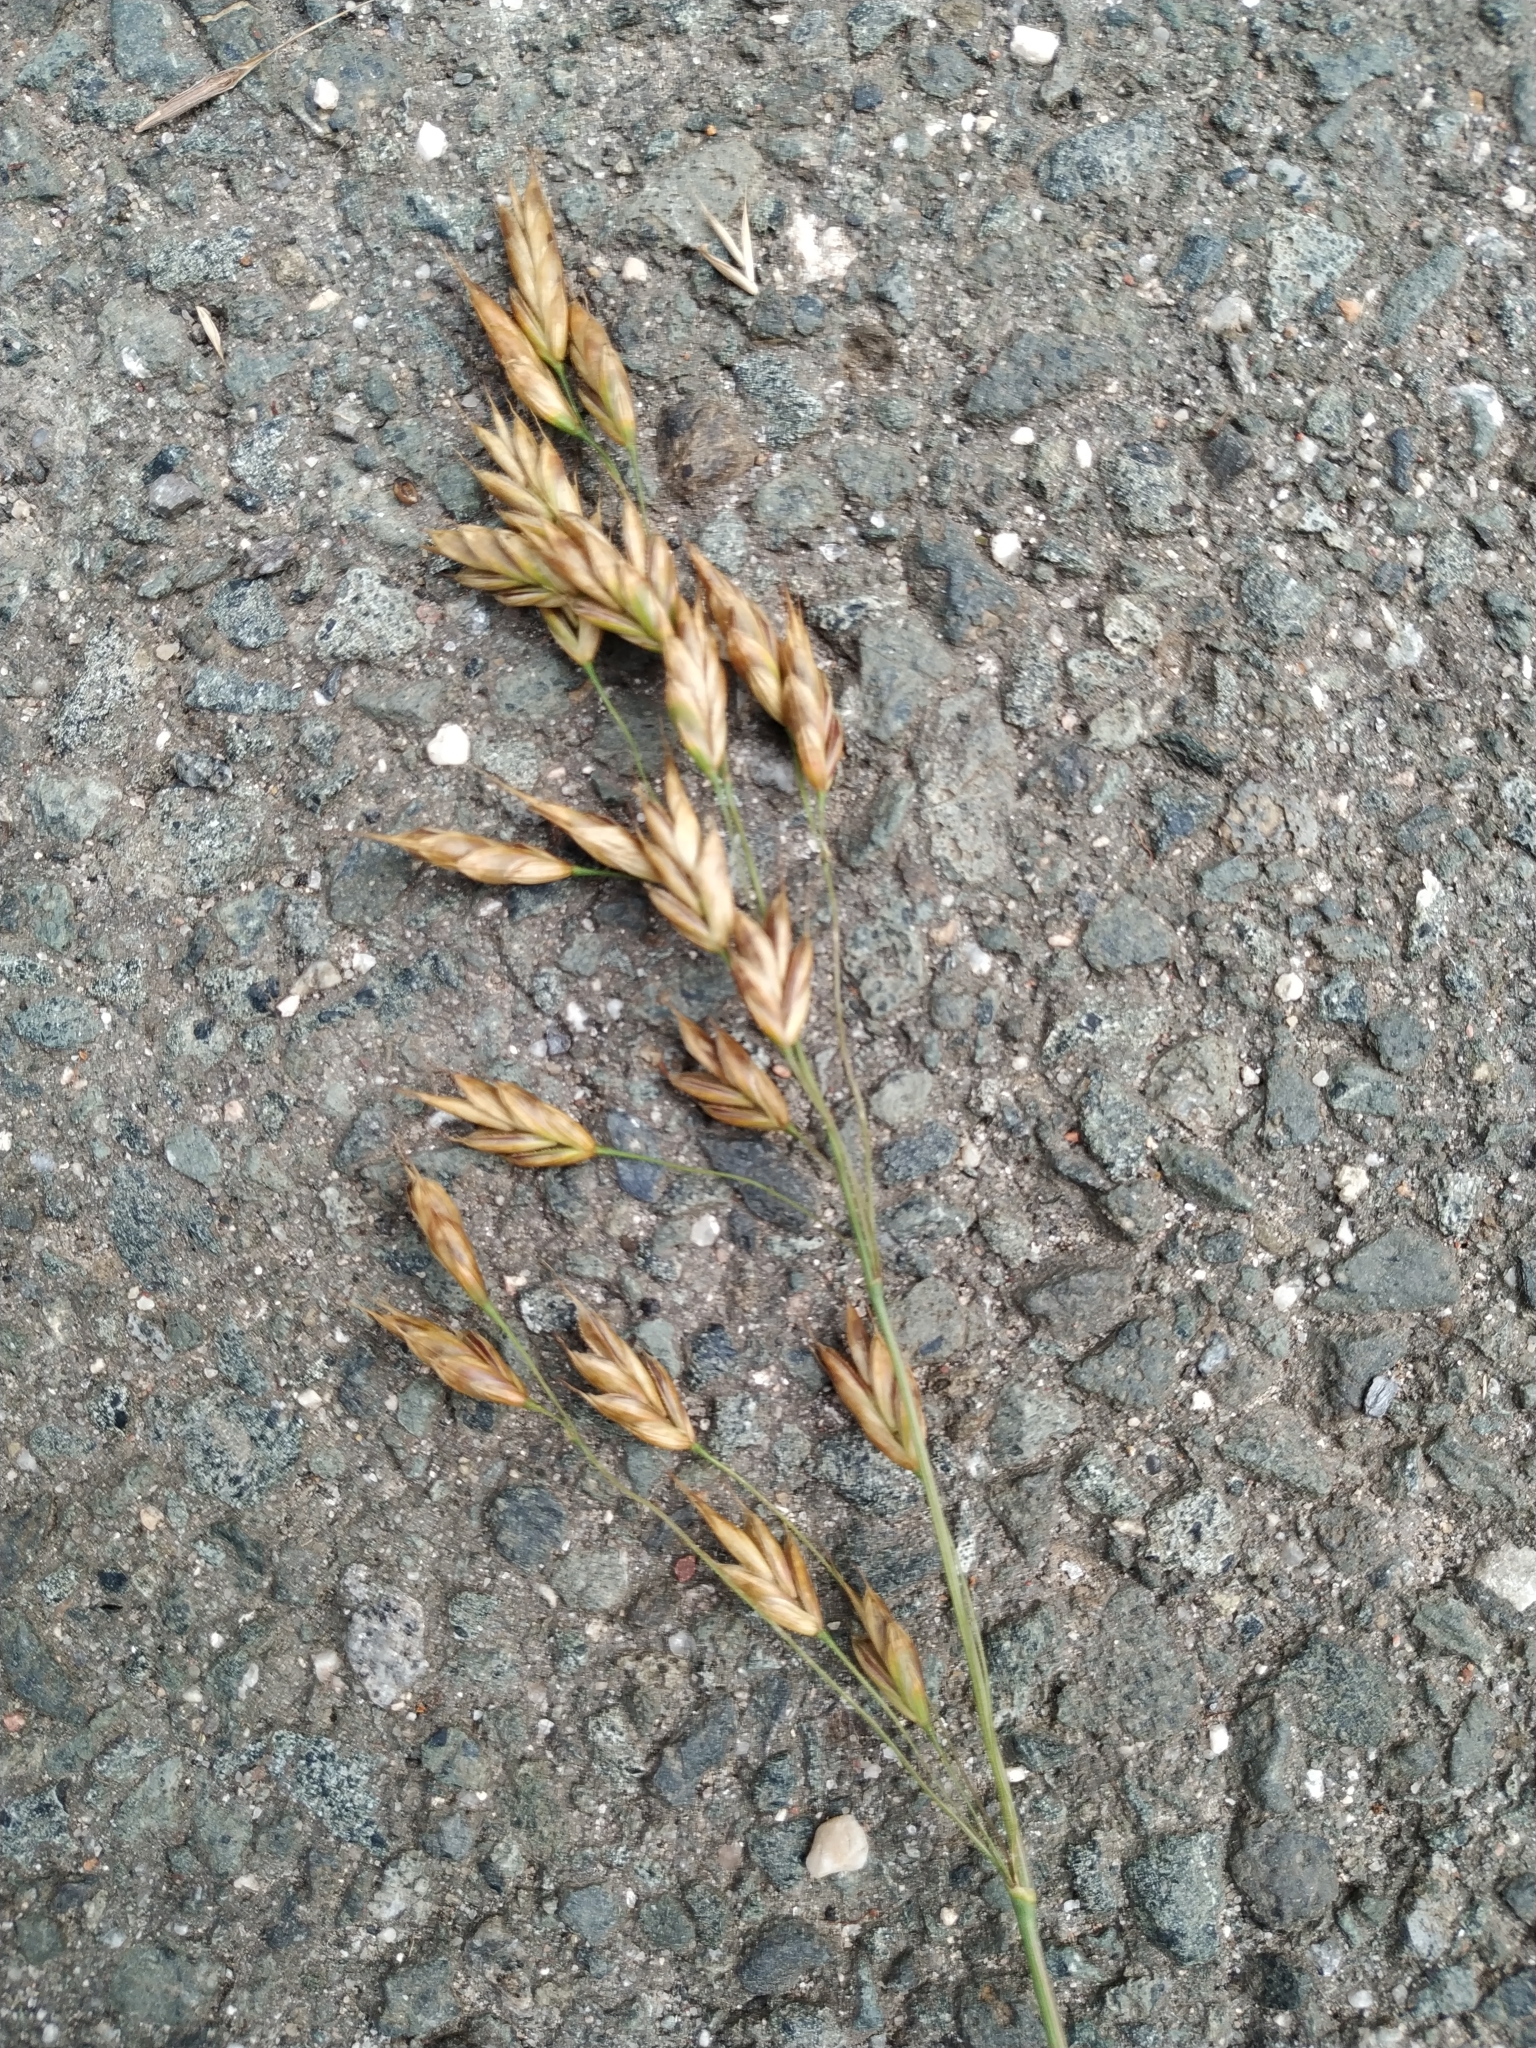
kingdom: Plantae
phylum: Tracheophyta
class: Liliopsida
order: Poales
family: Poaceae
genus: Bromus
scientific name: Bromus secalinus
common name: Rye brome
